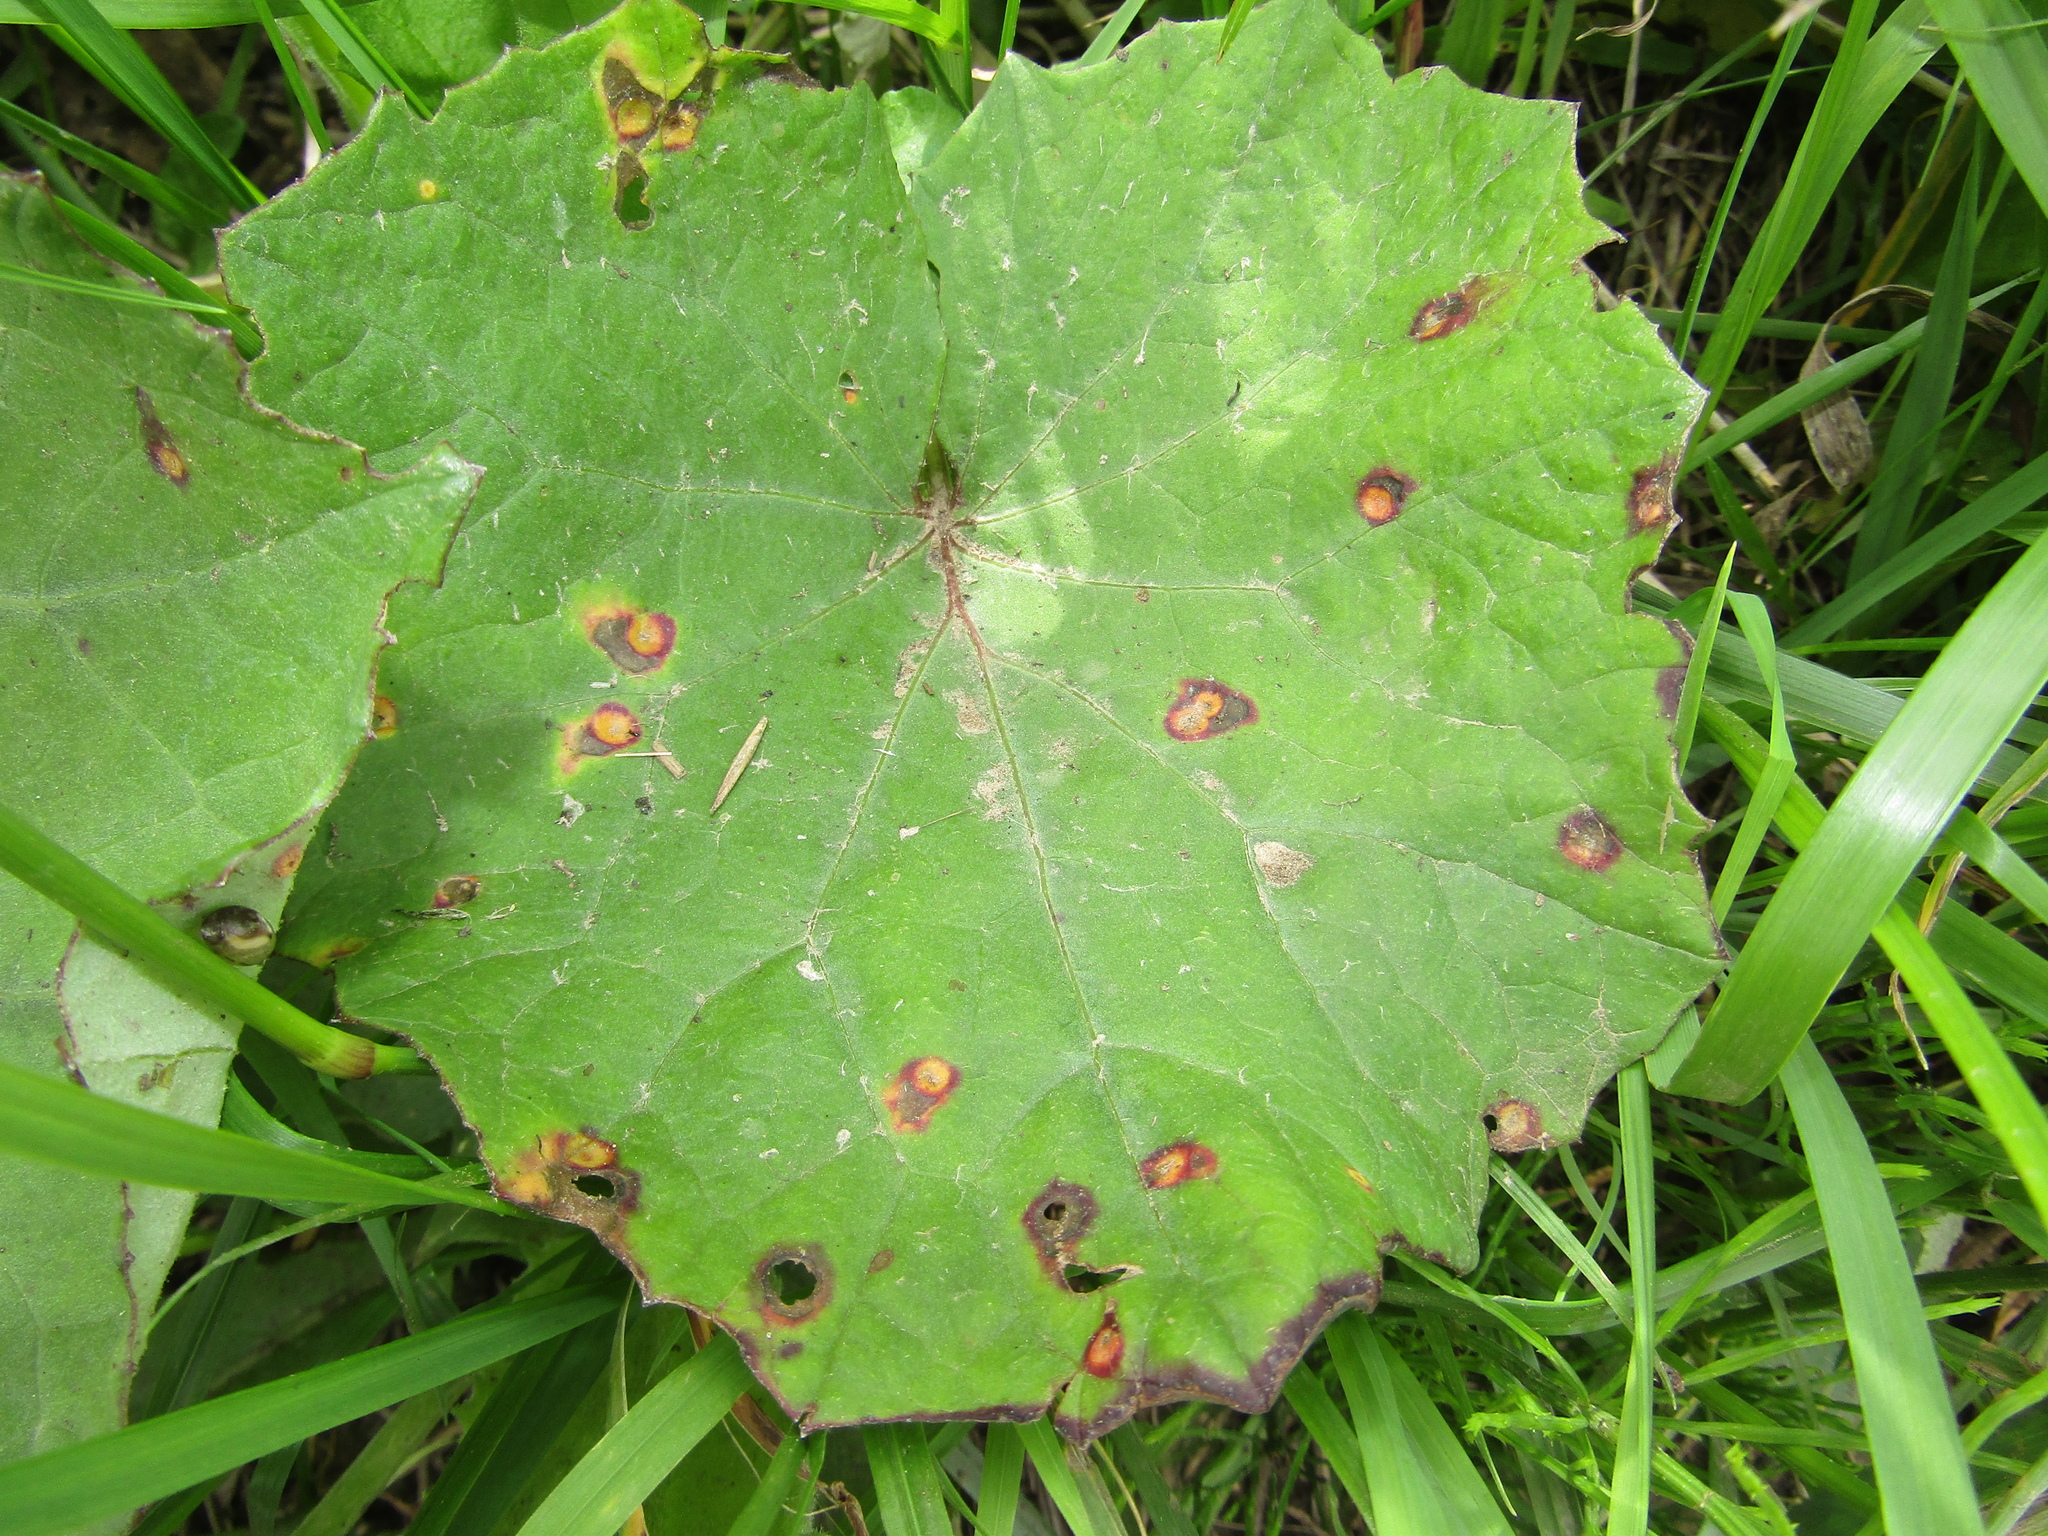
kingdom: Plantae
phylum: Tracheophyta
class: Magnoliopsida
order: Asterales
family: Asteraceae
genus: Tussilago
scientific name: Tussilago farfara
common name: Coltsfoot
